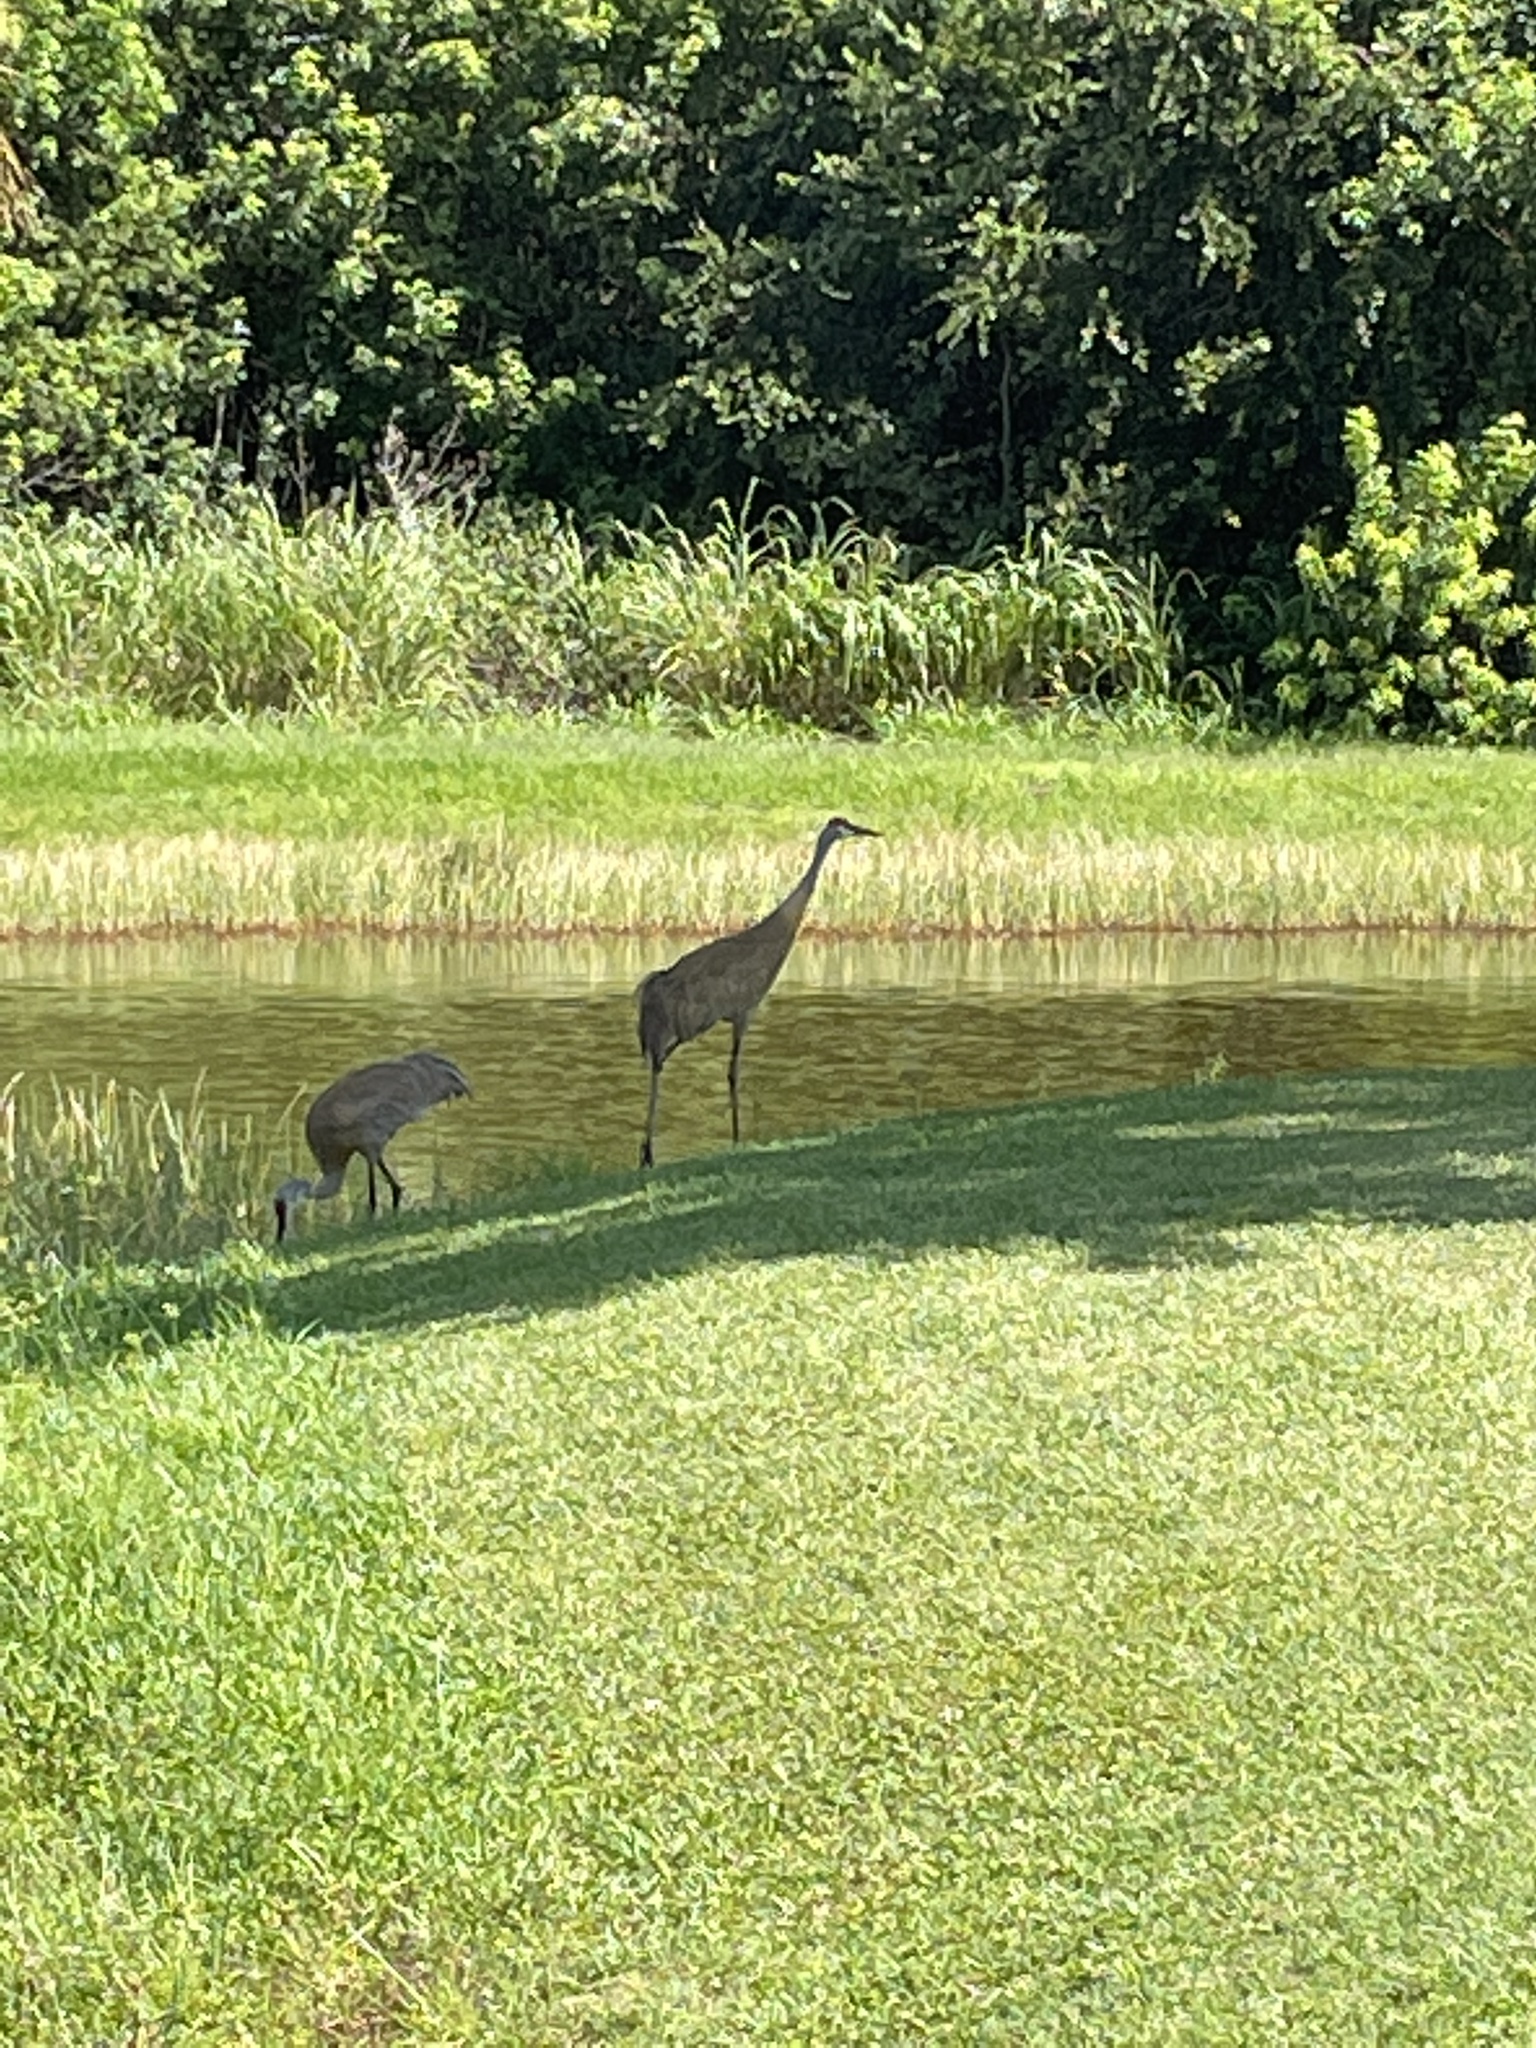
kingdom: Animalia
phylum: Chordata
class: Aves
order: Gruiformes
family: Gruidae
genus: Grus
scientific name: Grus canadensis
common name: Sandhill crane
